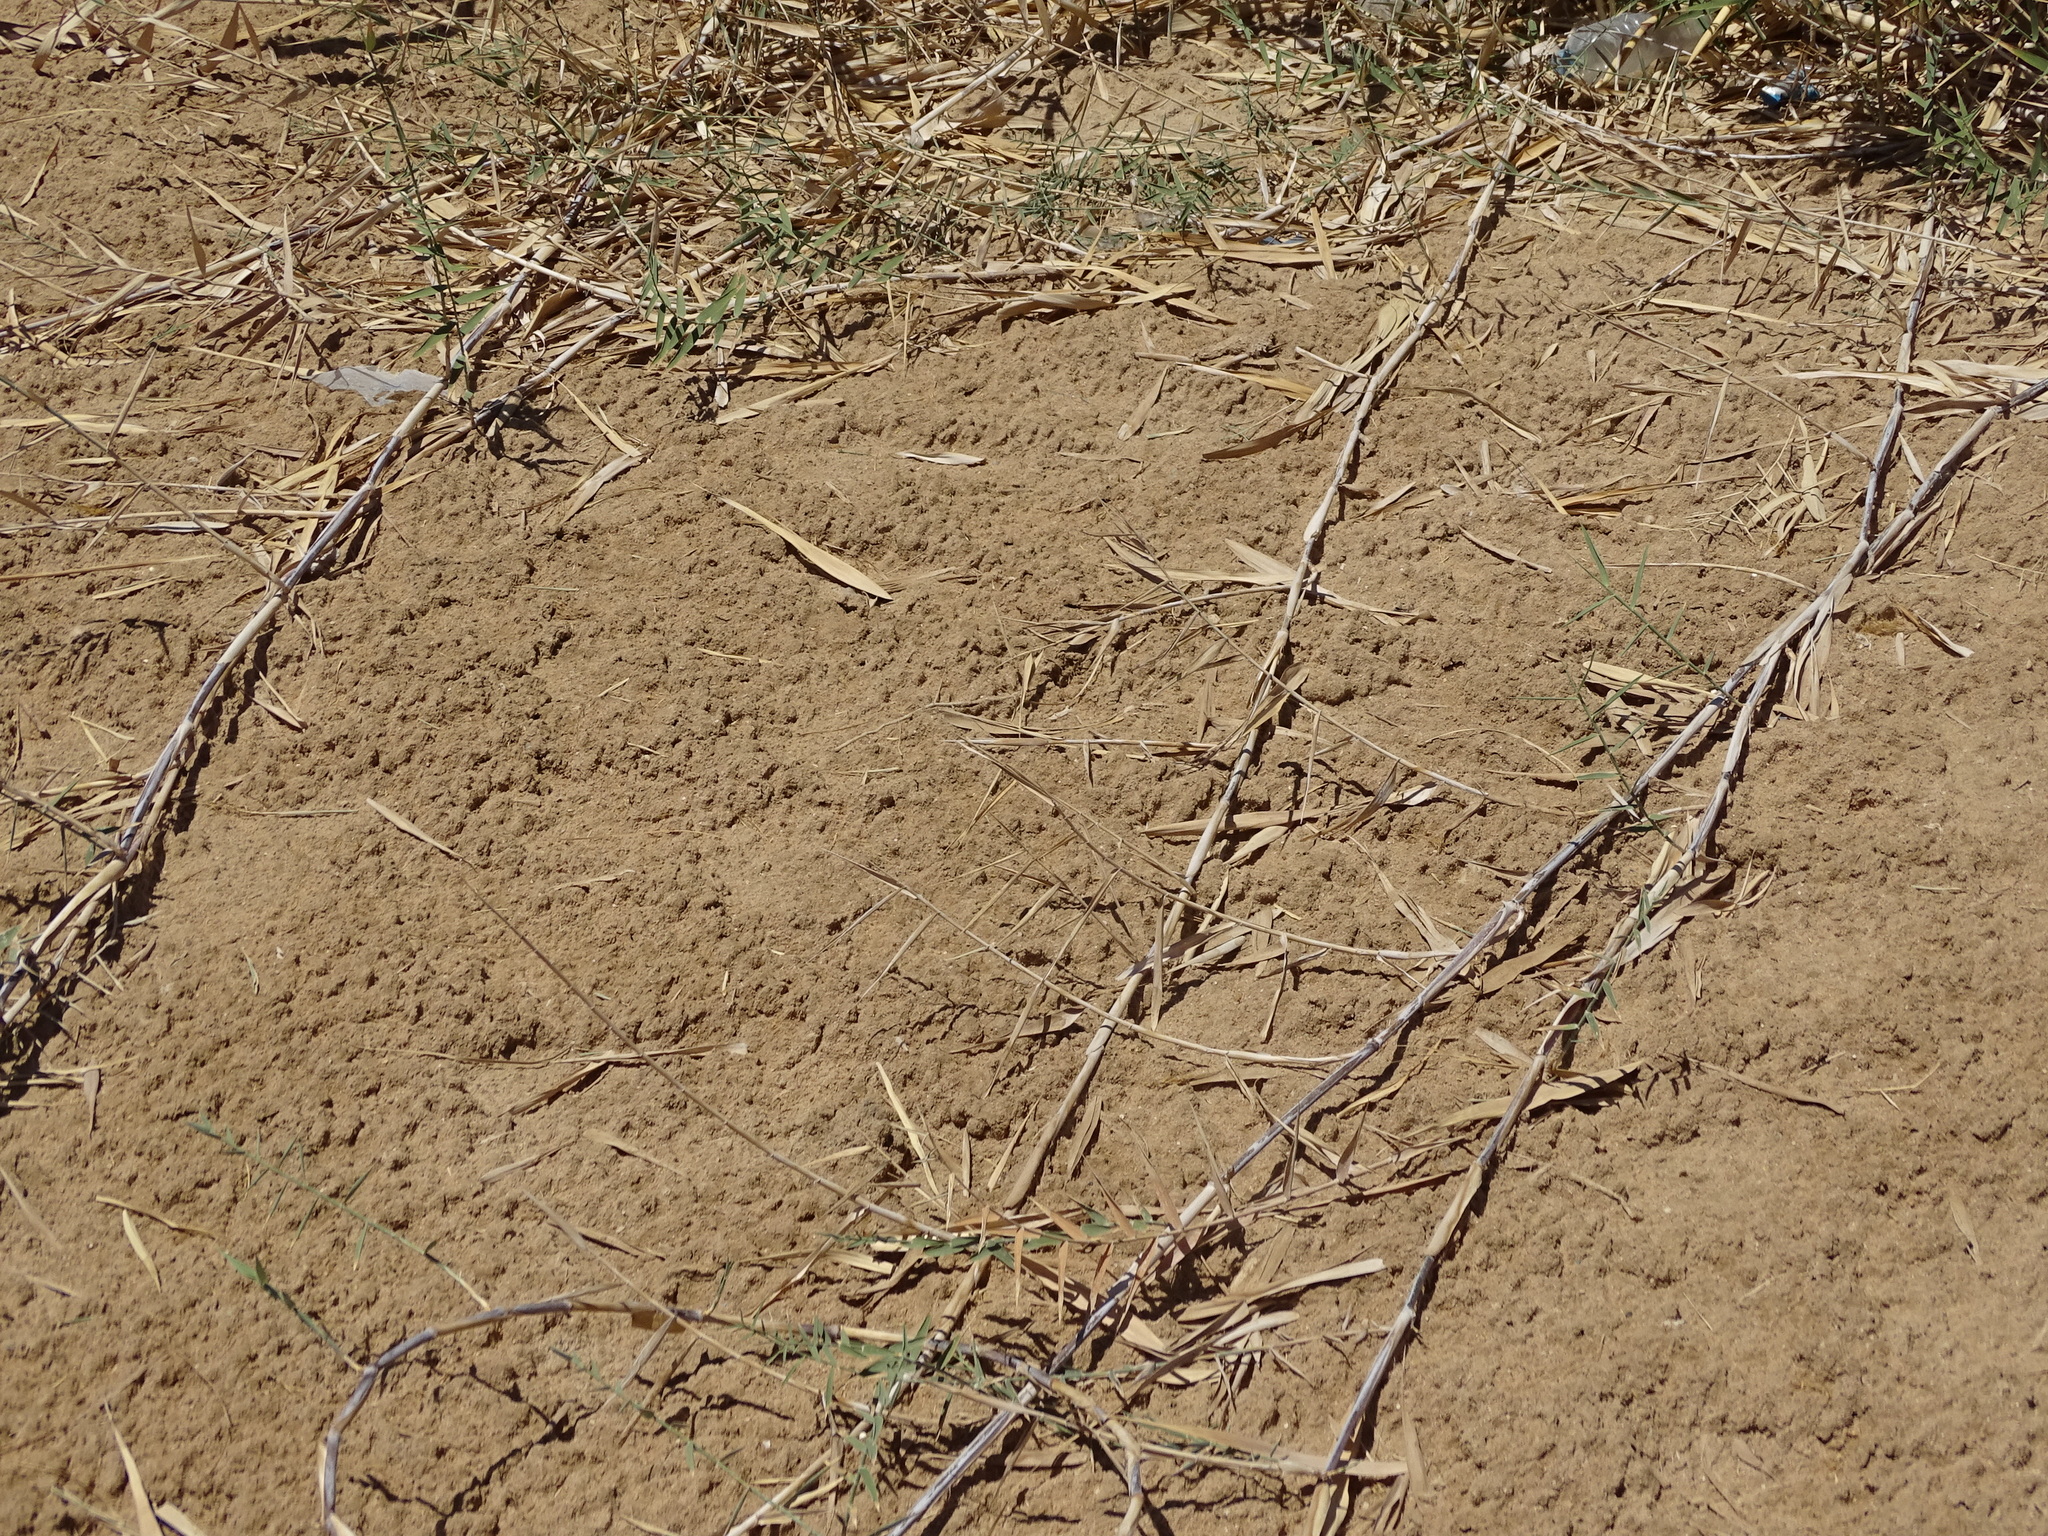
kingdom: Plantae
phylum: Tracheophyta
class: Liliopsida
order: Poales
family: Poaceae
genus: Phragmites
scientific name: Phragmites australis
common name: Common reed
